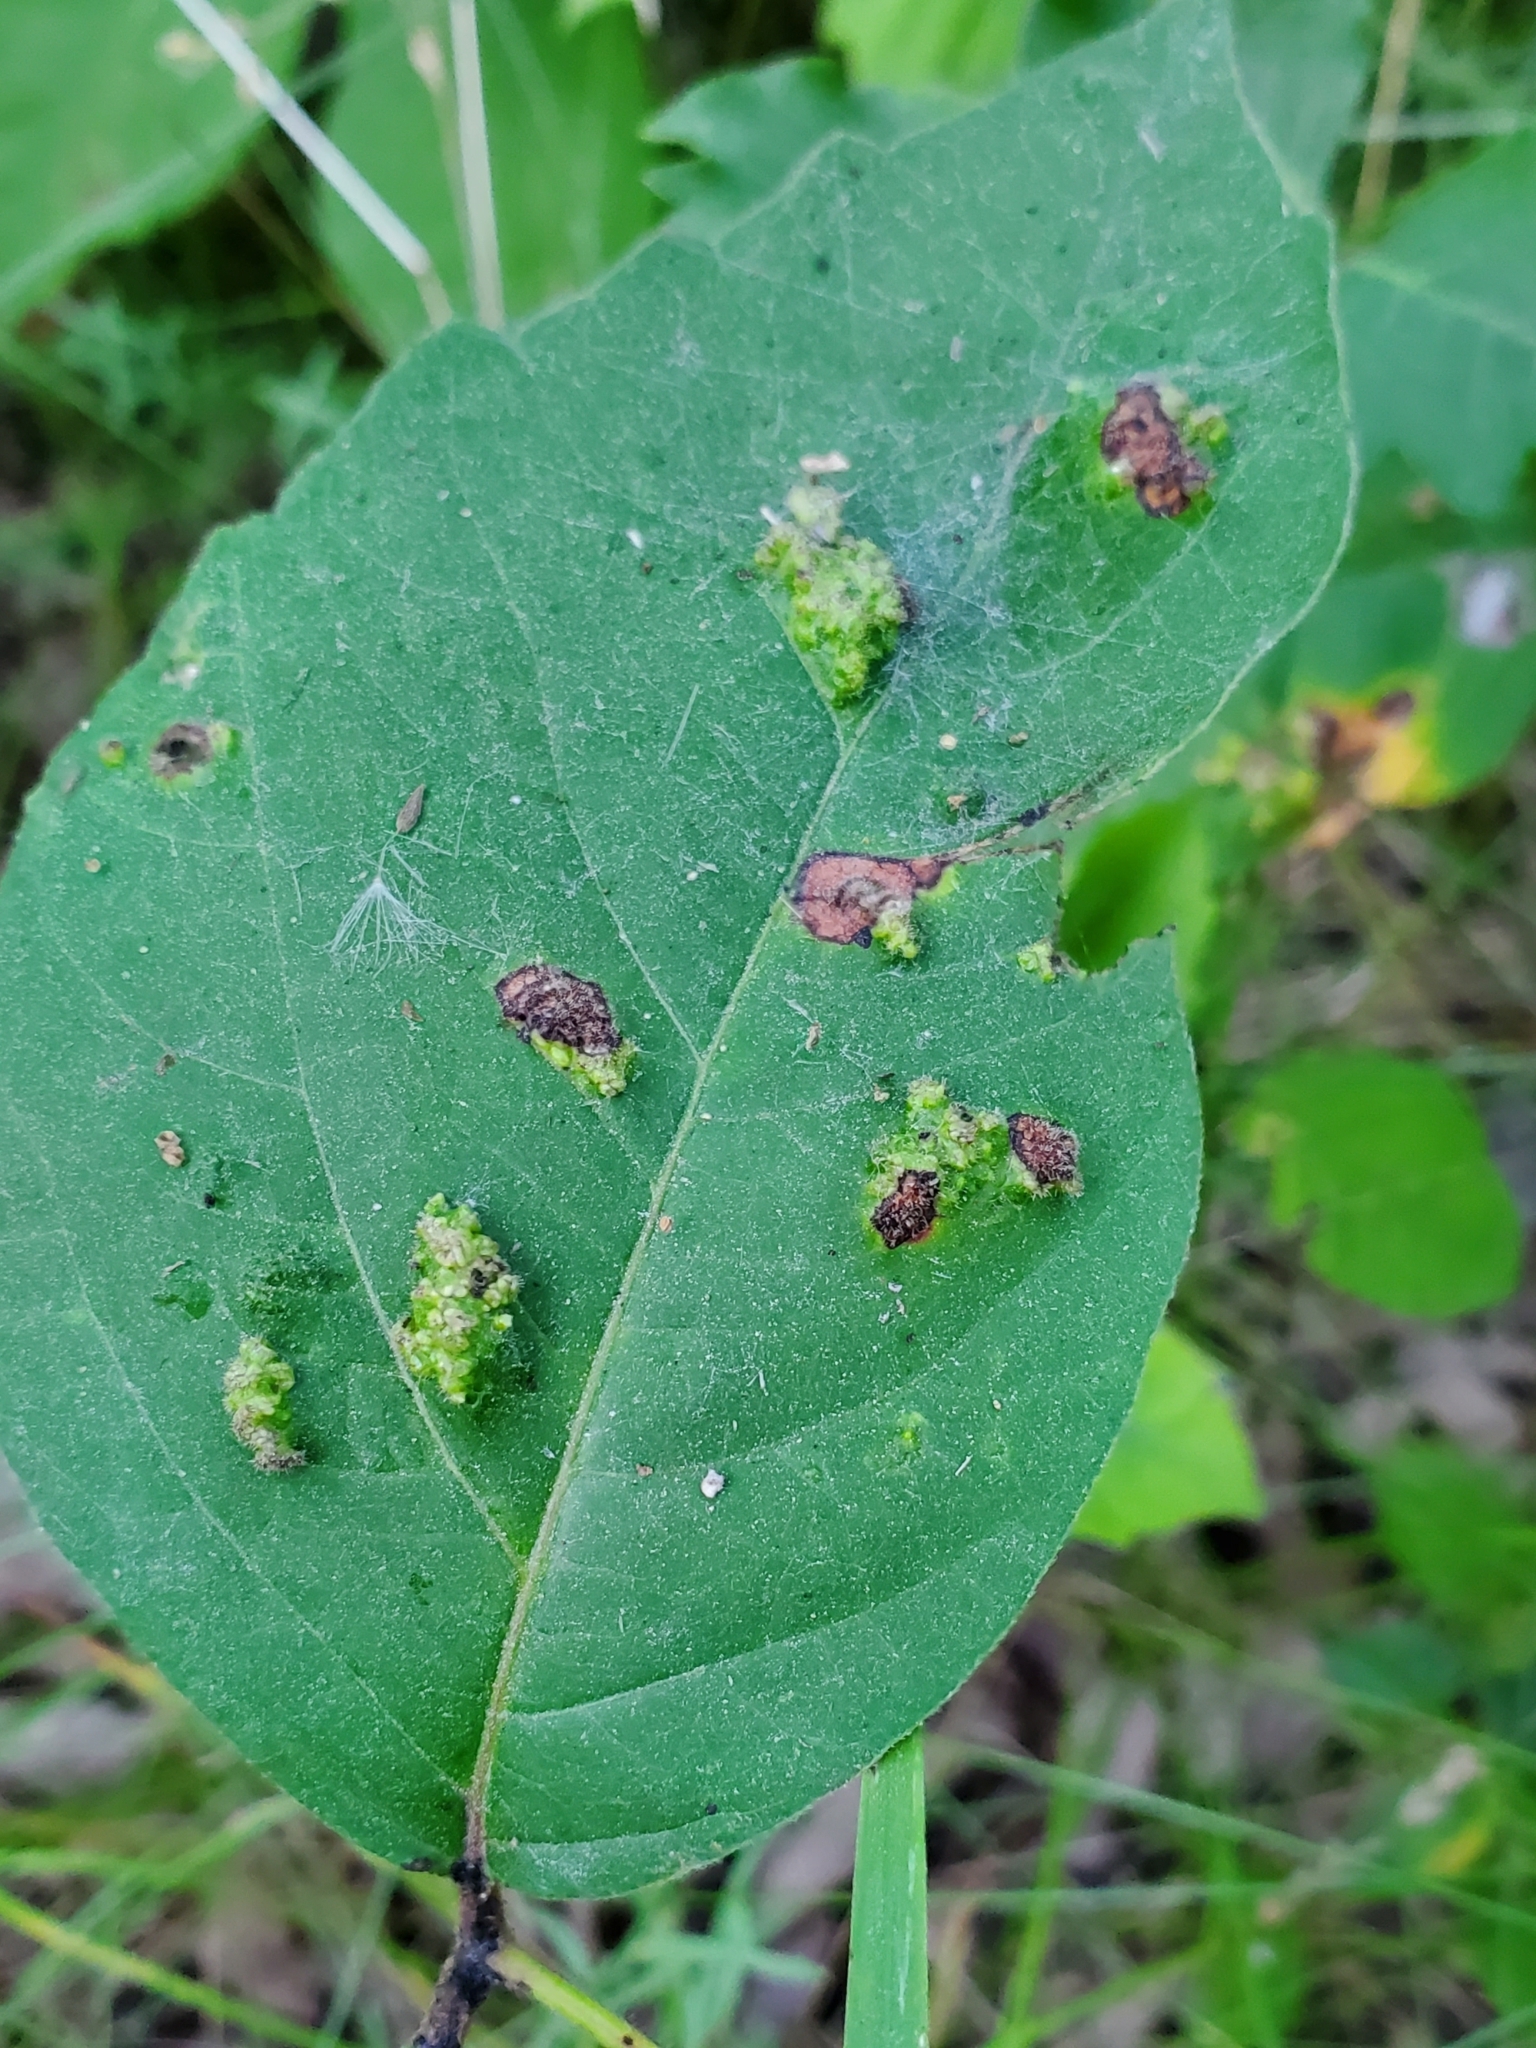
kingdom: Animalia
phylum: Arthropoda
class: Arachnida
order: Trombidiformes
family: Eriophyidae
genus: Aculops
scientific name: Aculops
